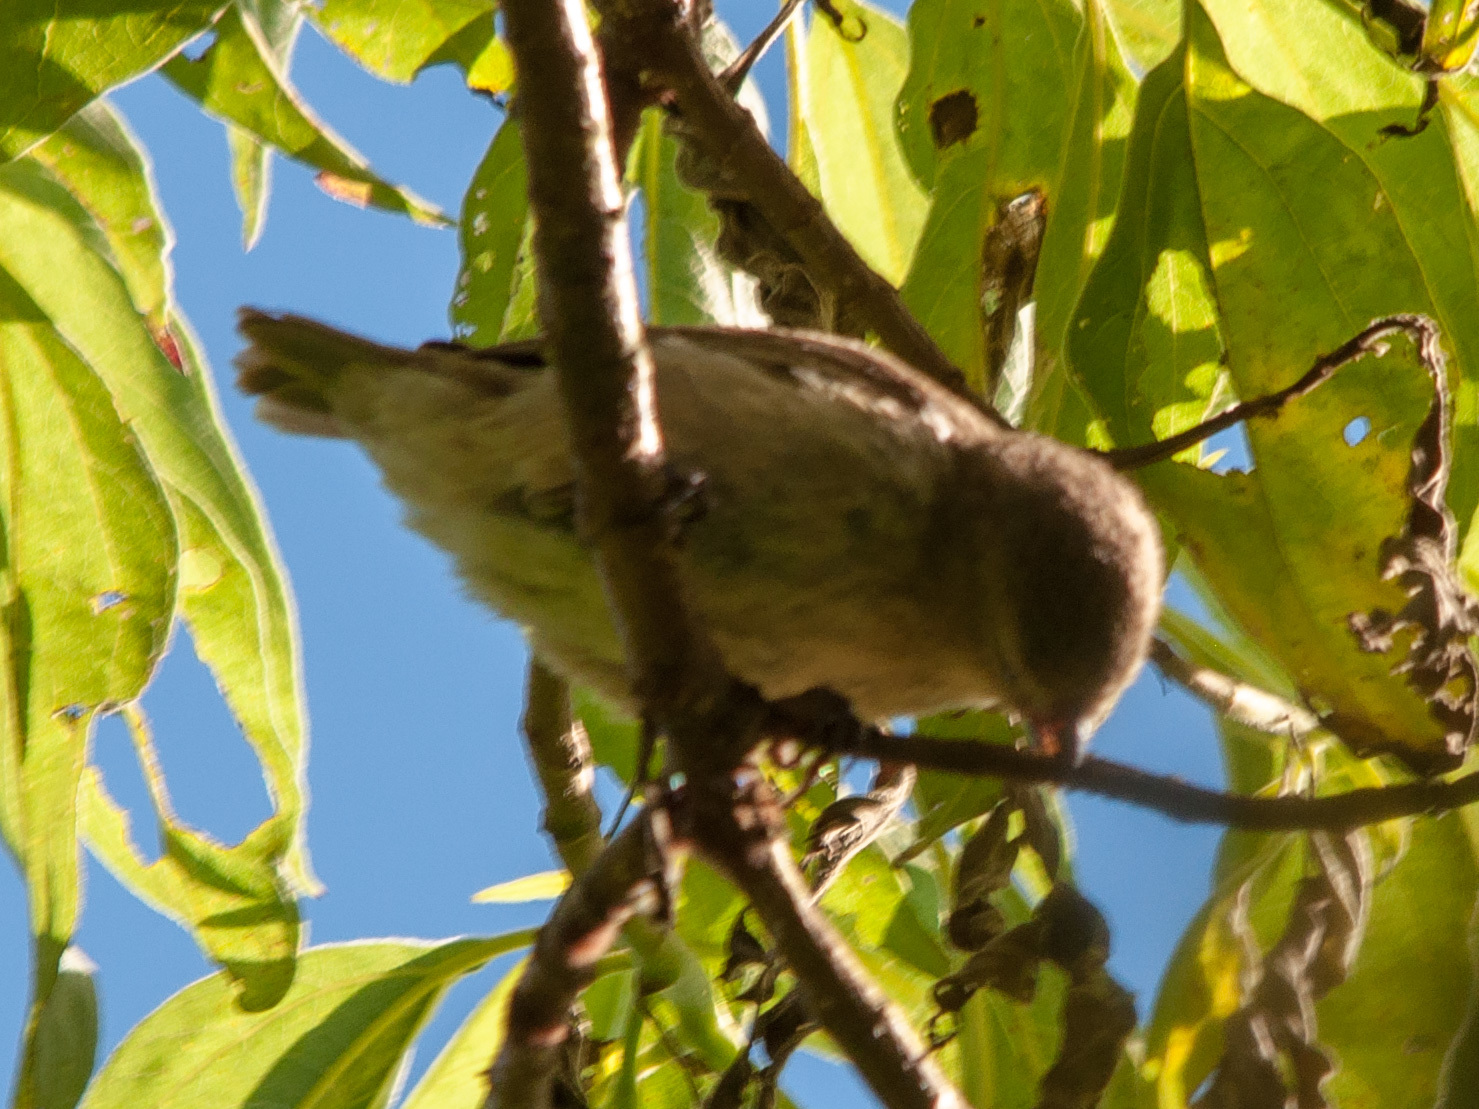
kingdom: Animalia
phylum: Chordata
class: Aves
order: Passeriformes
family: Thraupidae
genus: Certhidea
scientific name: Certhidea olivacea
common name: Green warbler-finch
